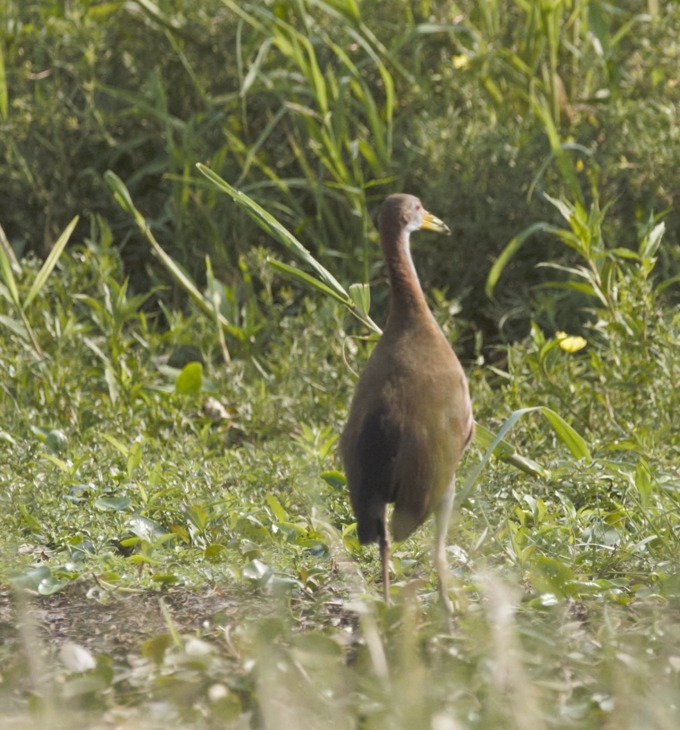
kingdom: Animalia
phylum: Chordata
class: Aves
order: Gruiformes
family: Rallidae
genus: Aramides
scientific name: Aramides ypecaha
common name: Giant wood rail
